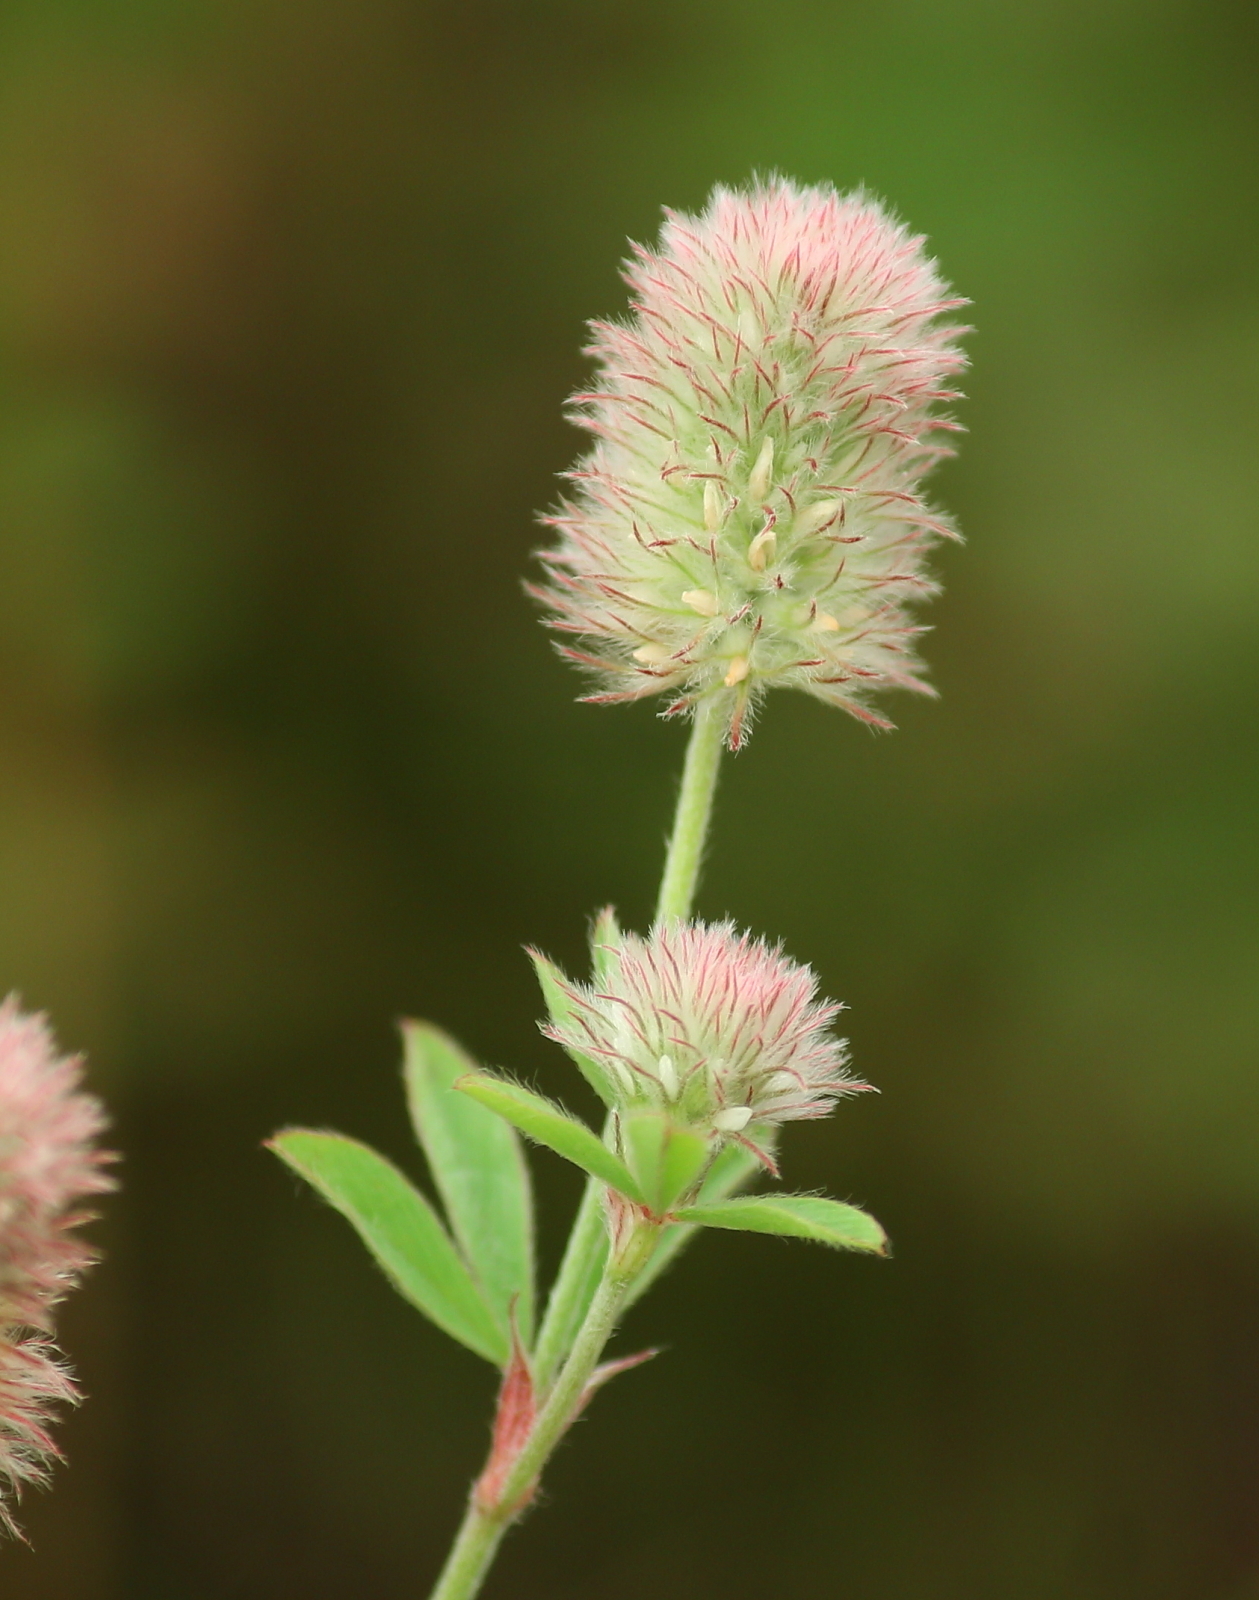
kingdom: Plantae
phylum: Tracheophyta
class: Magnoliopsida
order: Fabales
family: Fabaceae
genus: Trifolium
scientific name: Trifolium arvense
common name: Hare's-foot clover
